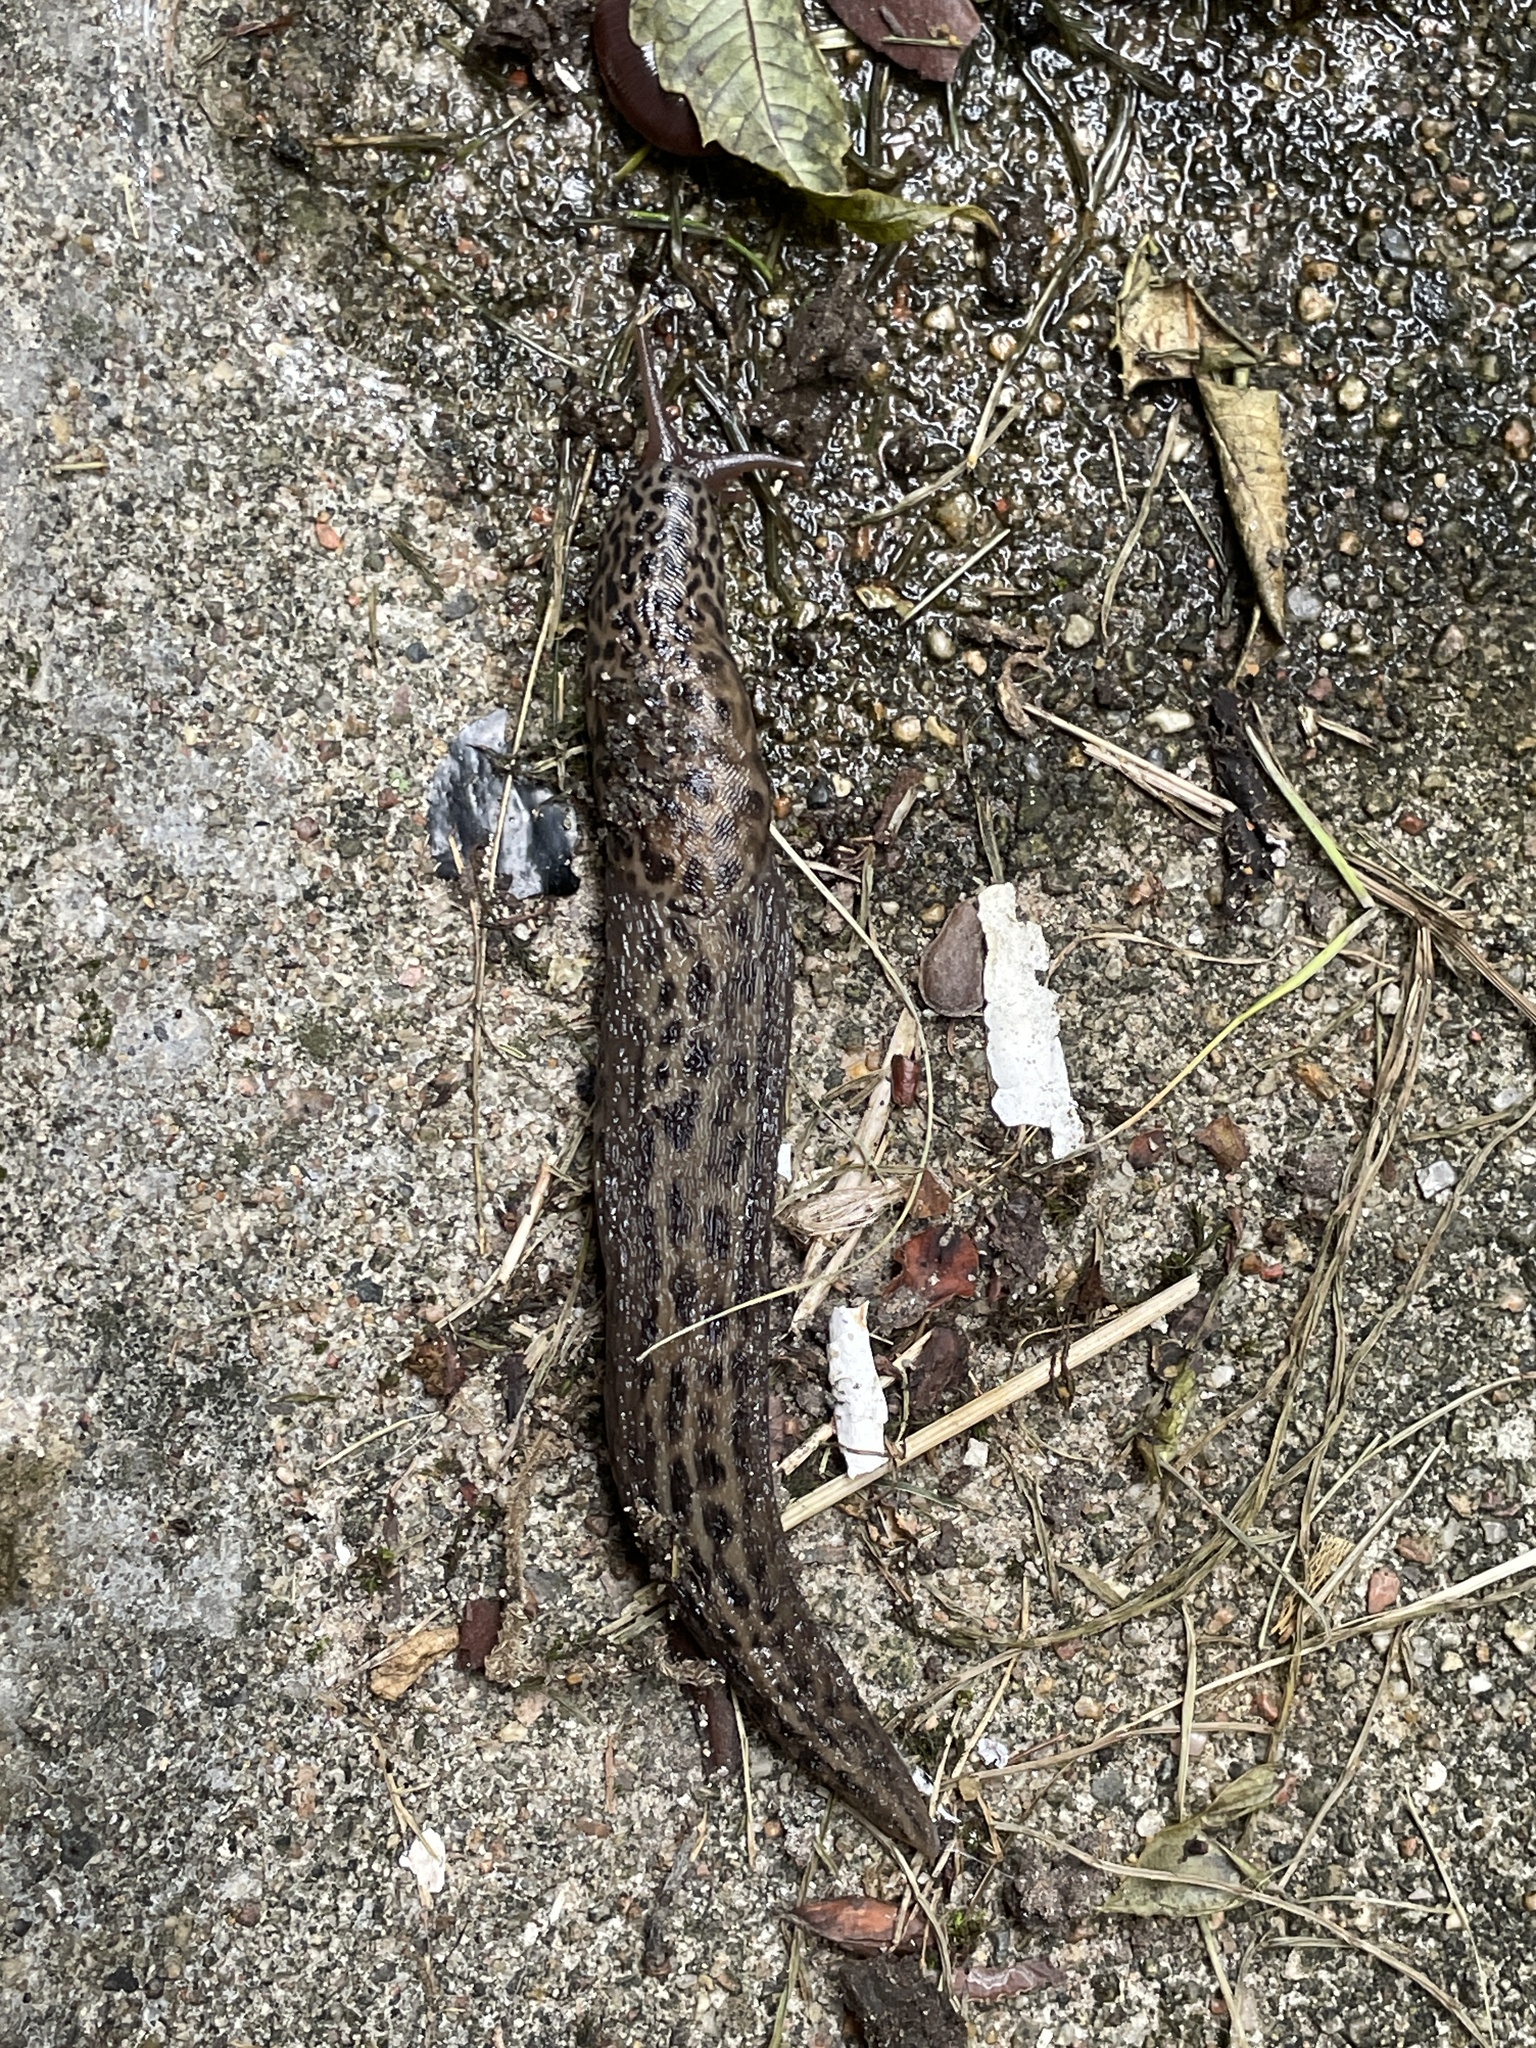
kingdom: Animalia
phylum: Mollusca
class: Gastropoda
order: Stylommatophora
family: Limacidae
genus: Limax
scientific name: Limax maximus
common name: Great grey slug
